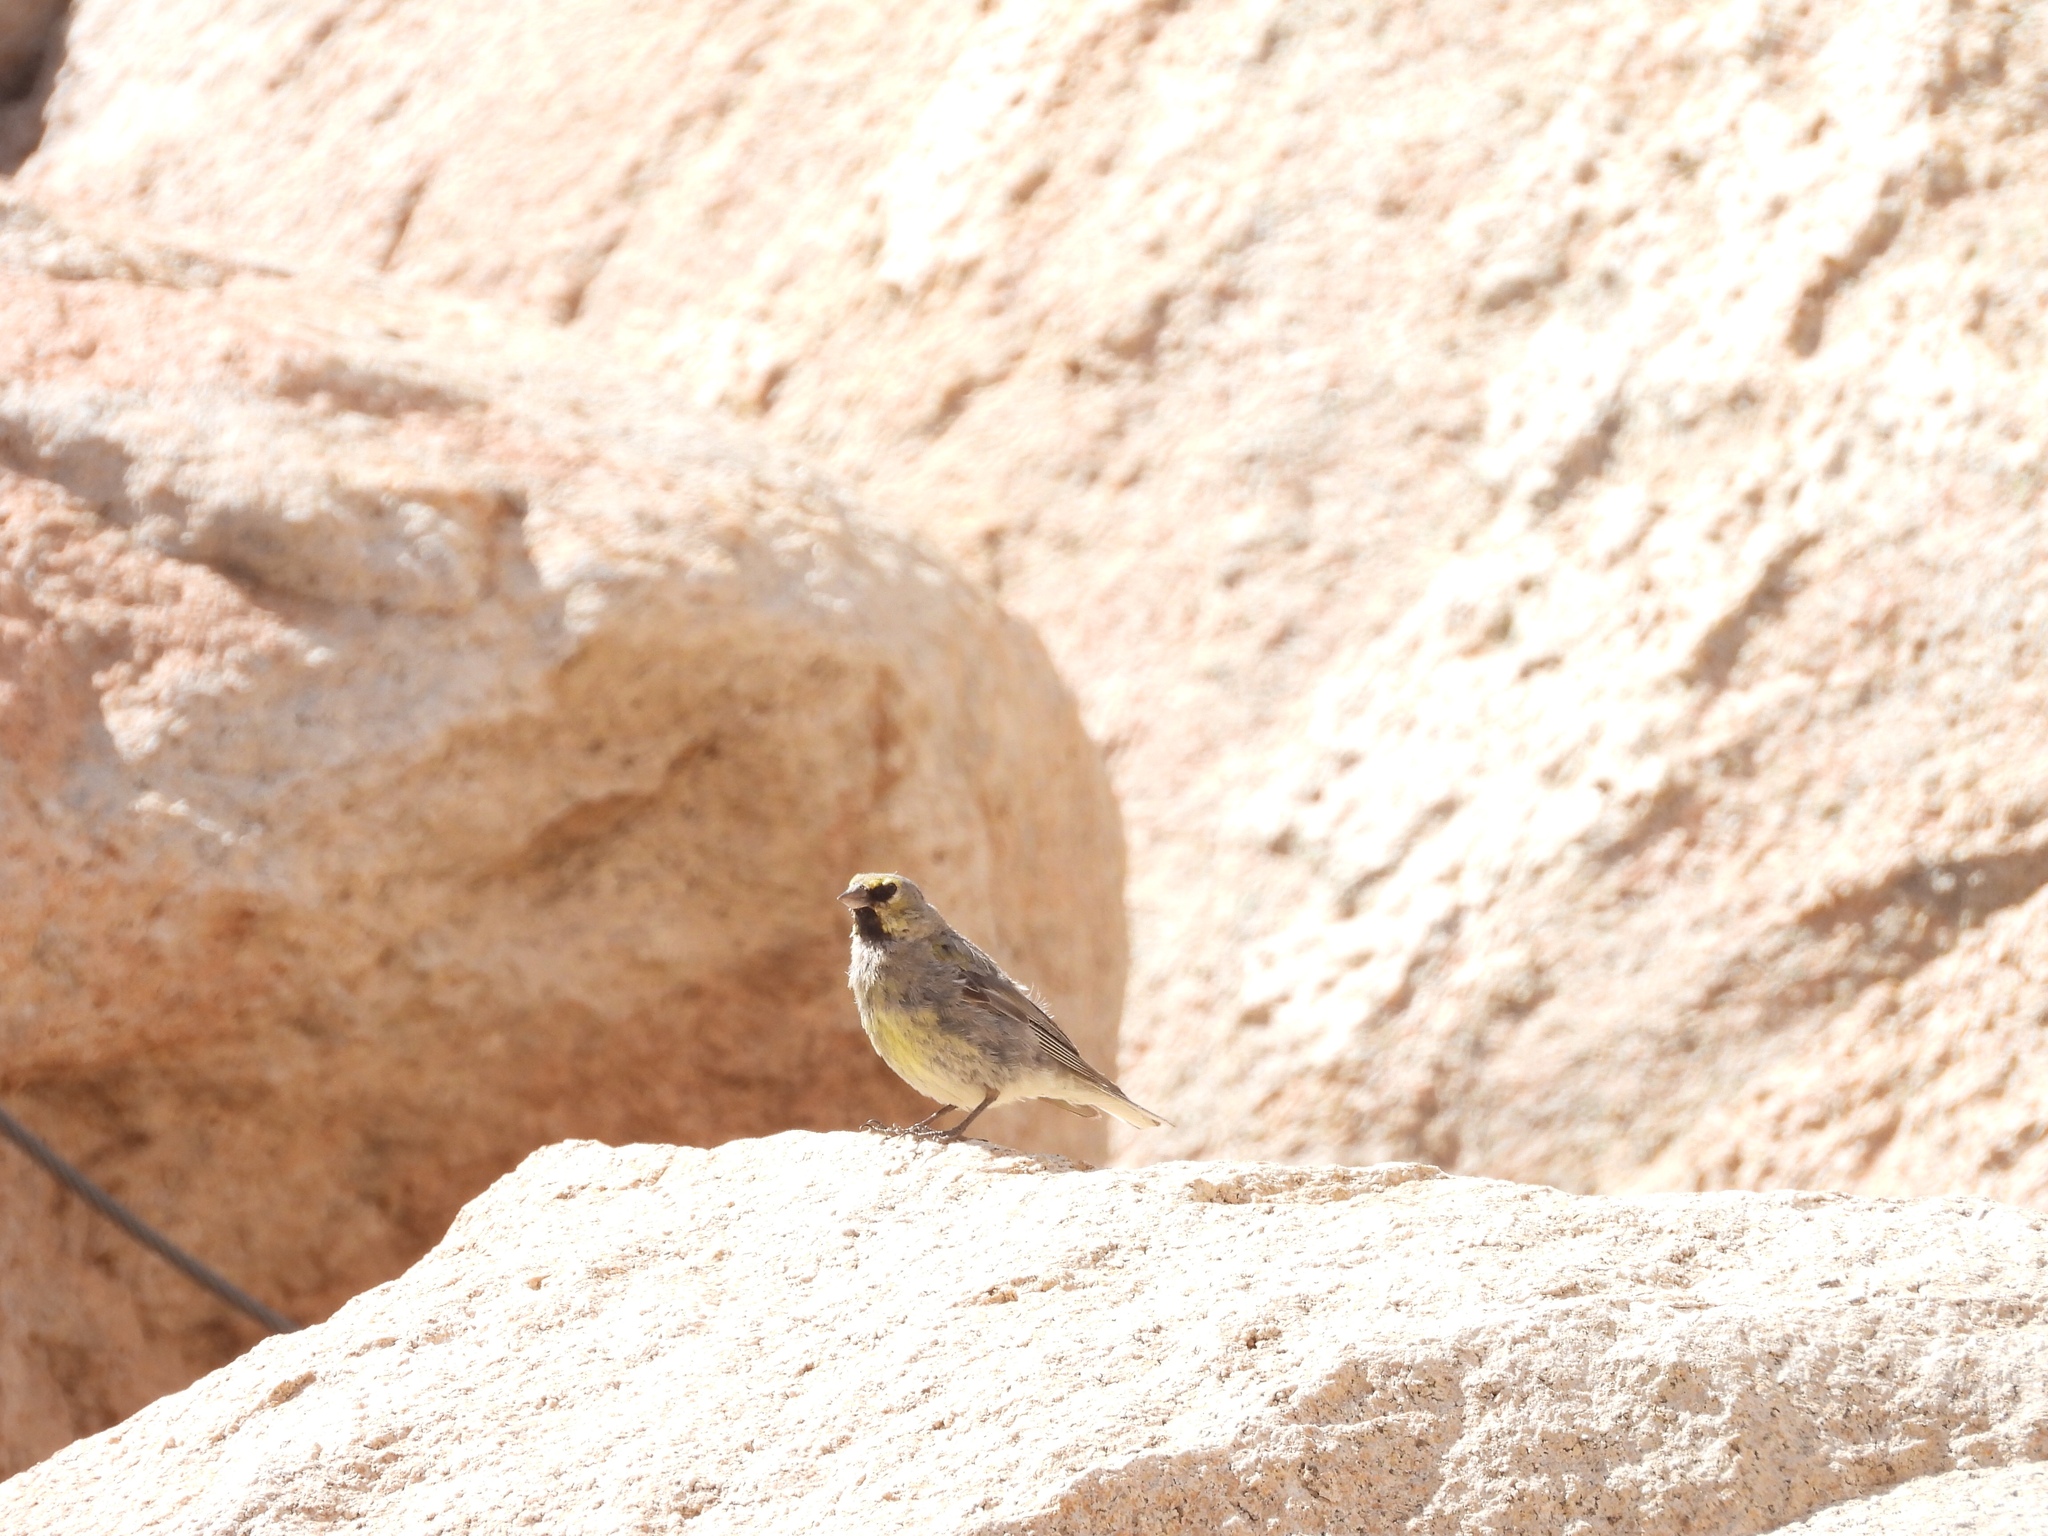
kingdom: Animalia
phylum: Chordata
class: Aves
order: Passeriformes
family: Thraupidae
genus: Melanodera
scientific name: Melanodera xanthogramma
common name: Yellow-bridled finch
